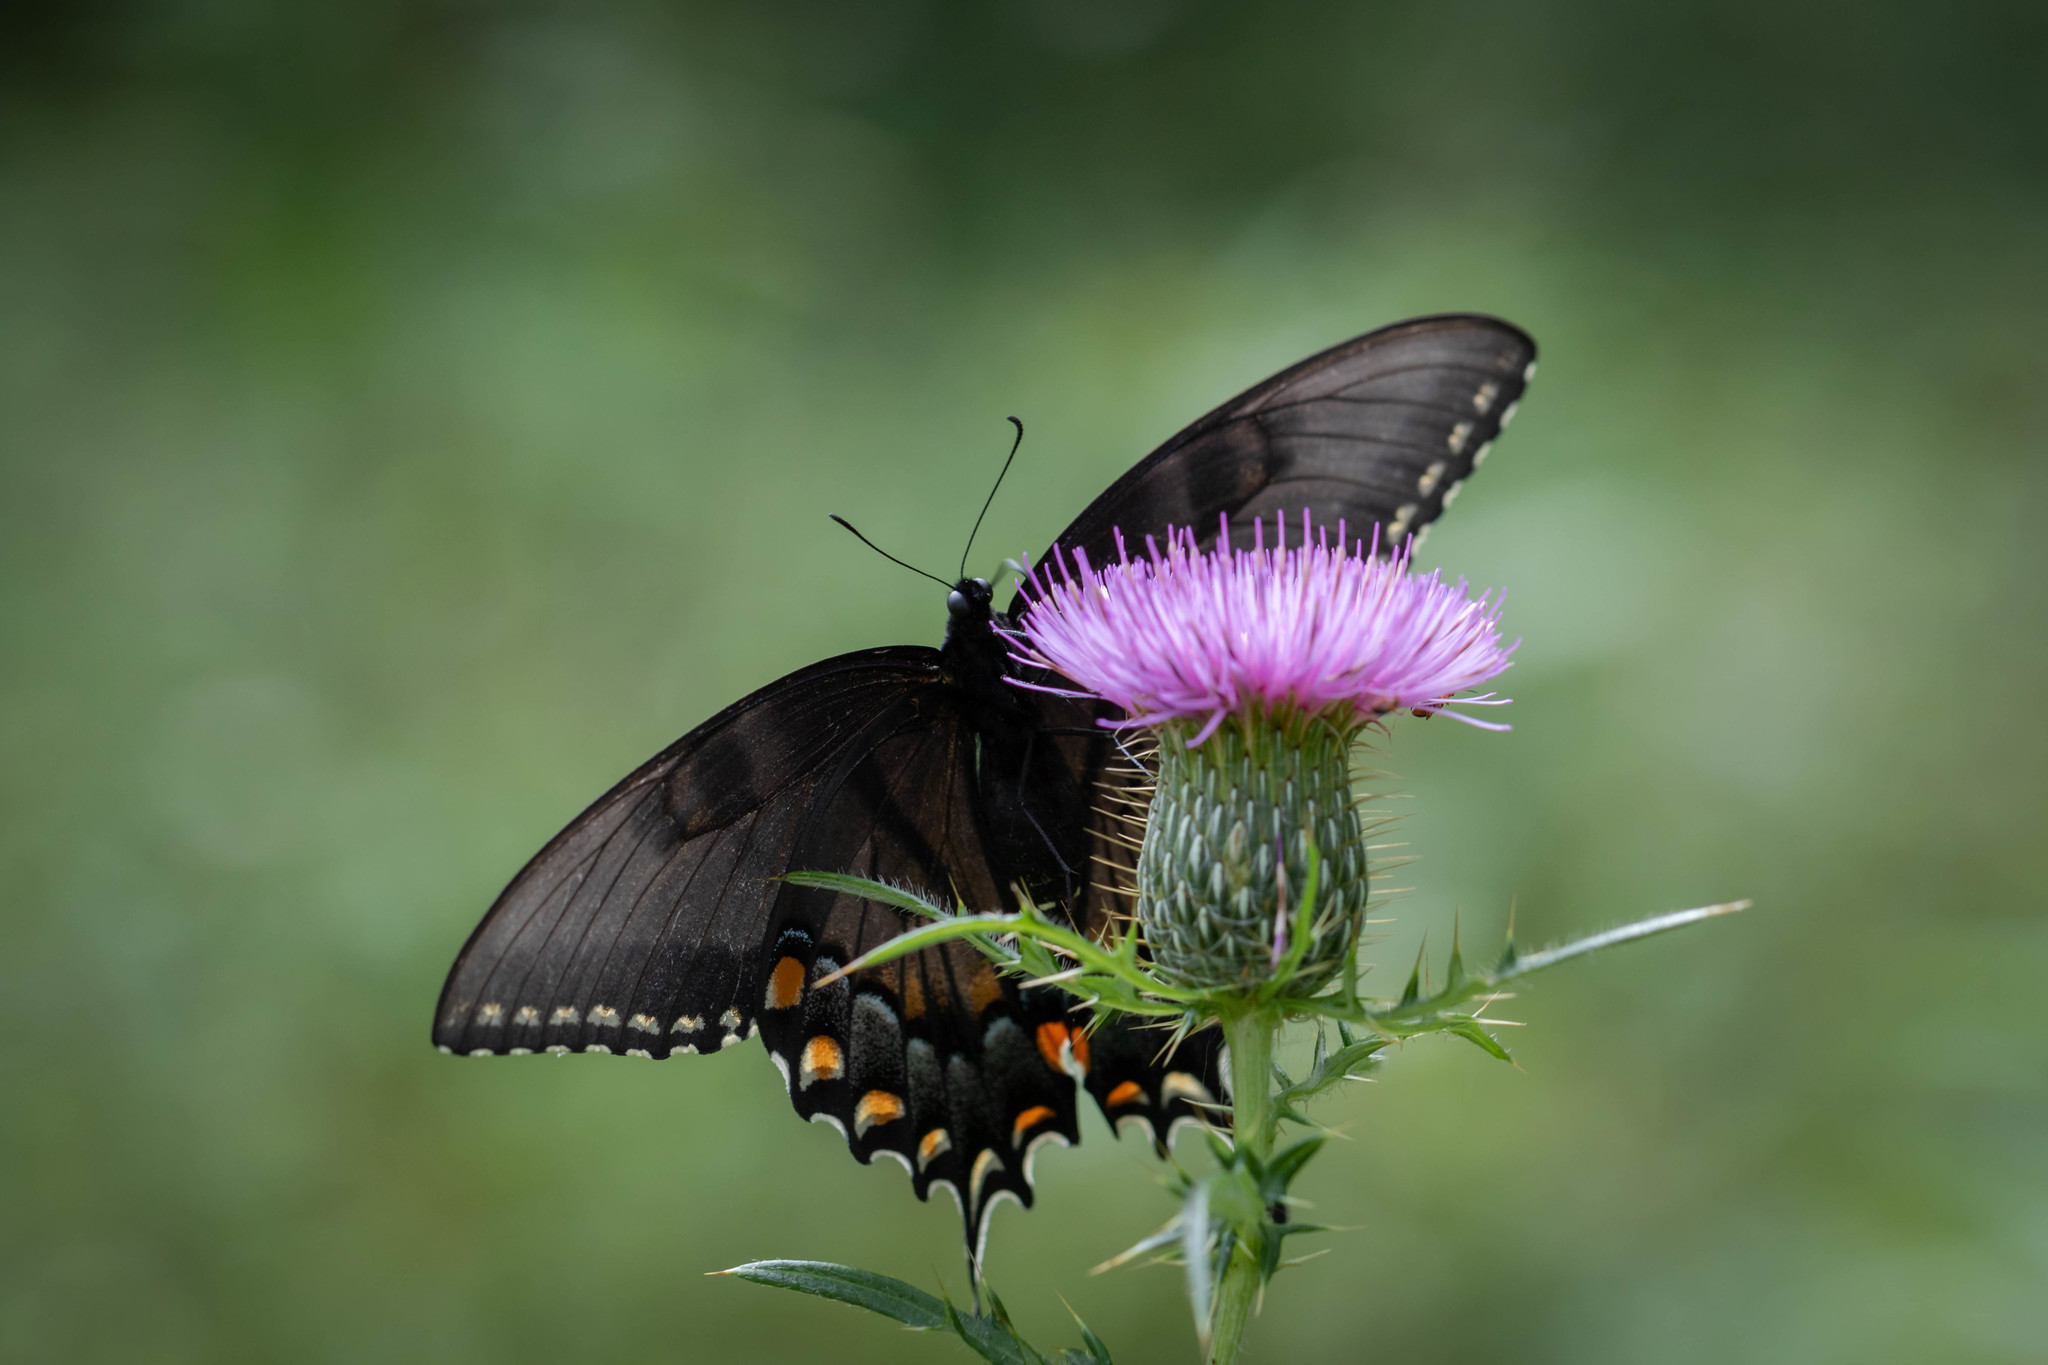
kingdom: Animalia
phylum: Arthropoda
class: Insecta
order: Lepidoptera
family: Papilionidae
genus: Papilio
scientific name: Papilio glaucus
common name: Tiger swallowtail
